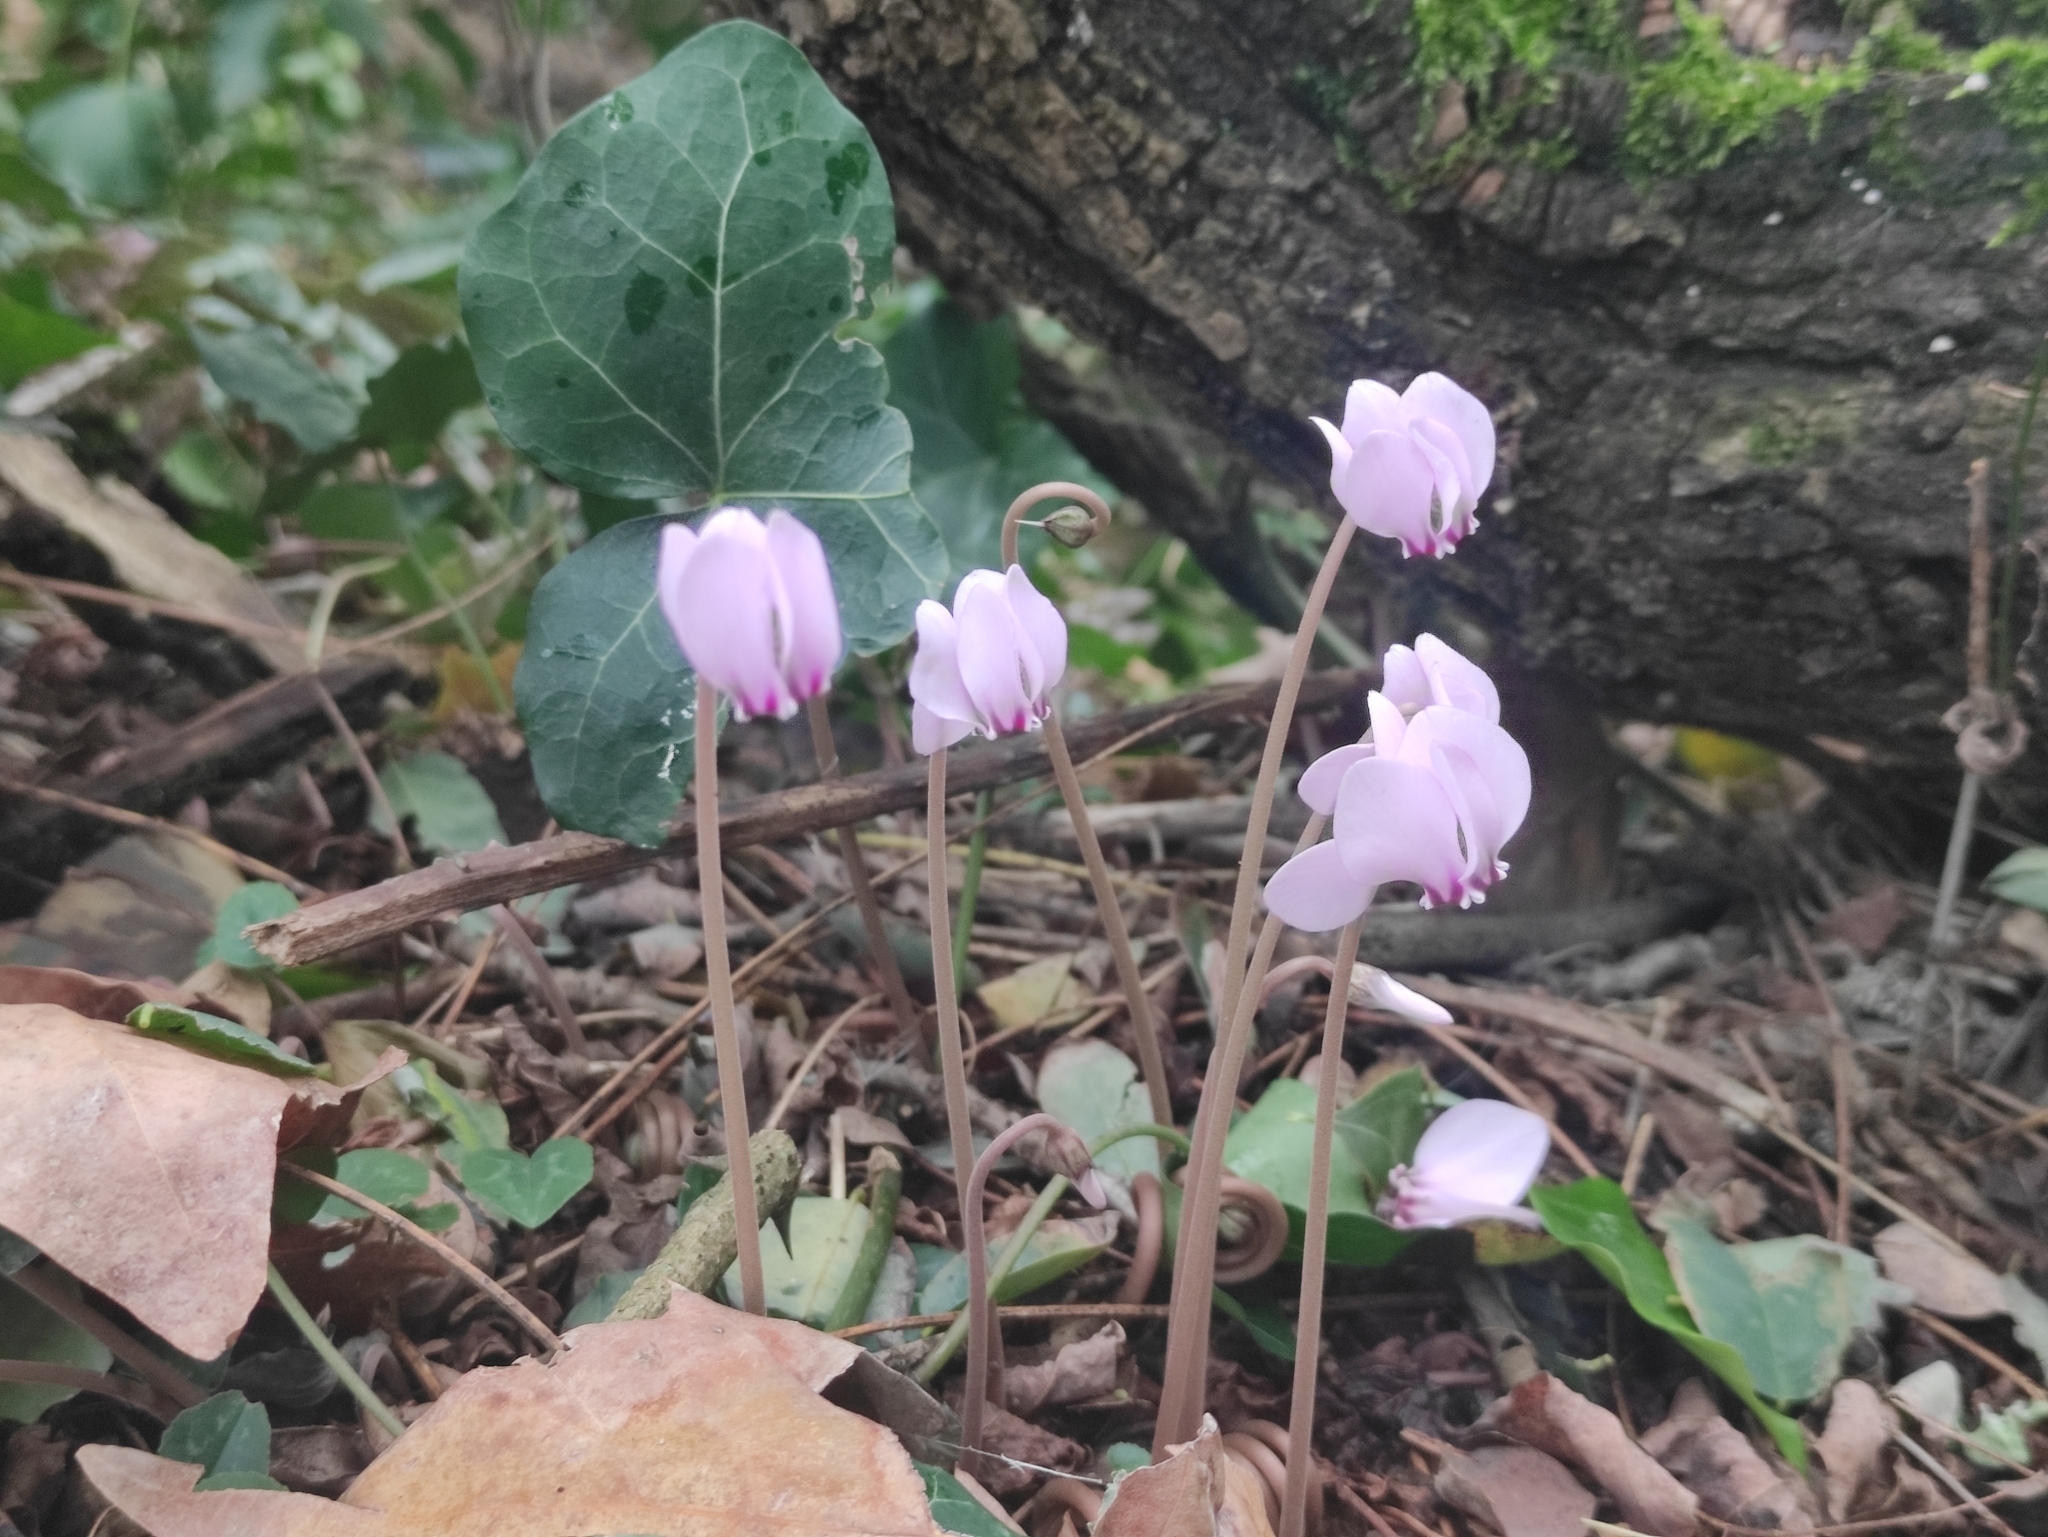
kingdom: Plantae
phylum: Tracheophyta
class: Magnoliopsida
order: Ericales
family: Primulaceae
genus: Cyclamen
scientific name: Cyclamen hederifolium
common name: Sowbread
